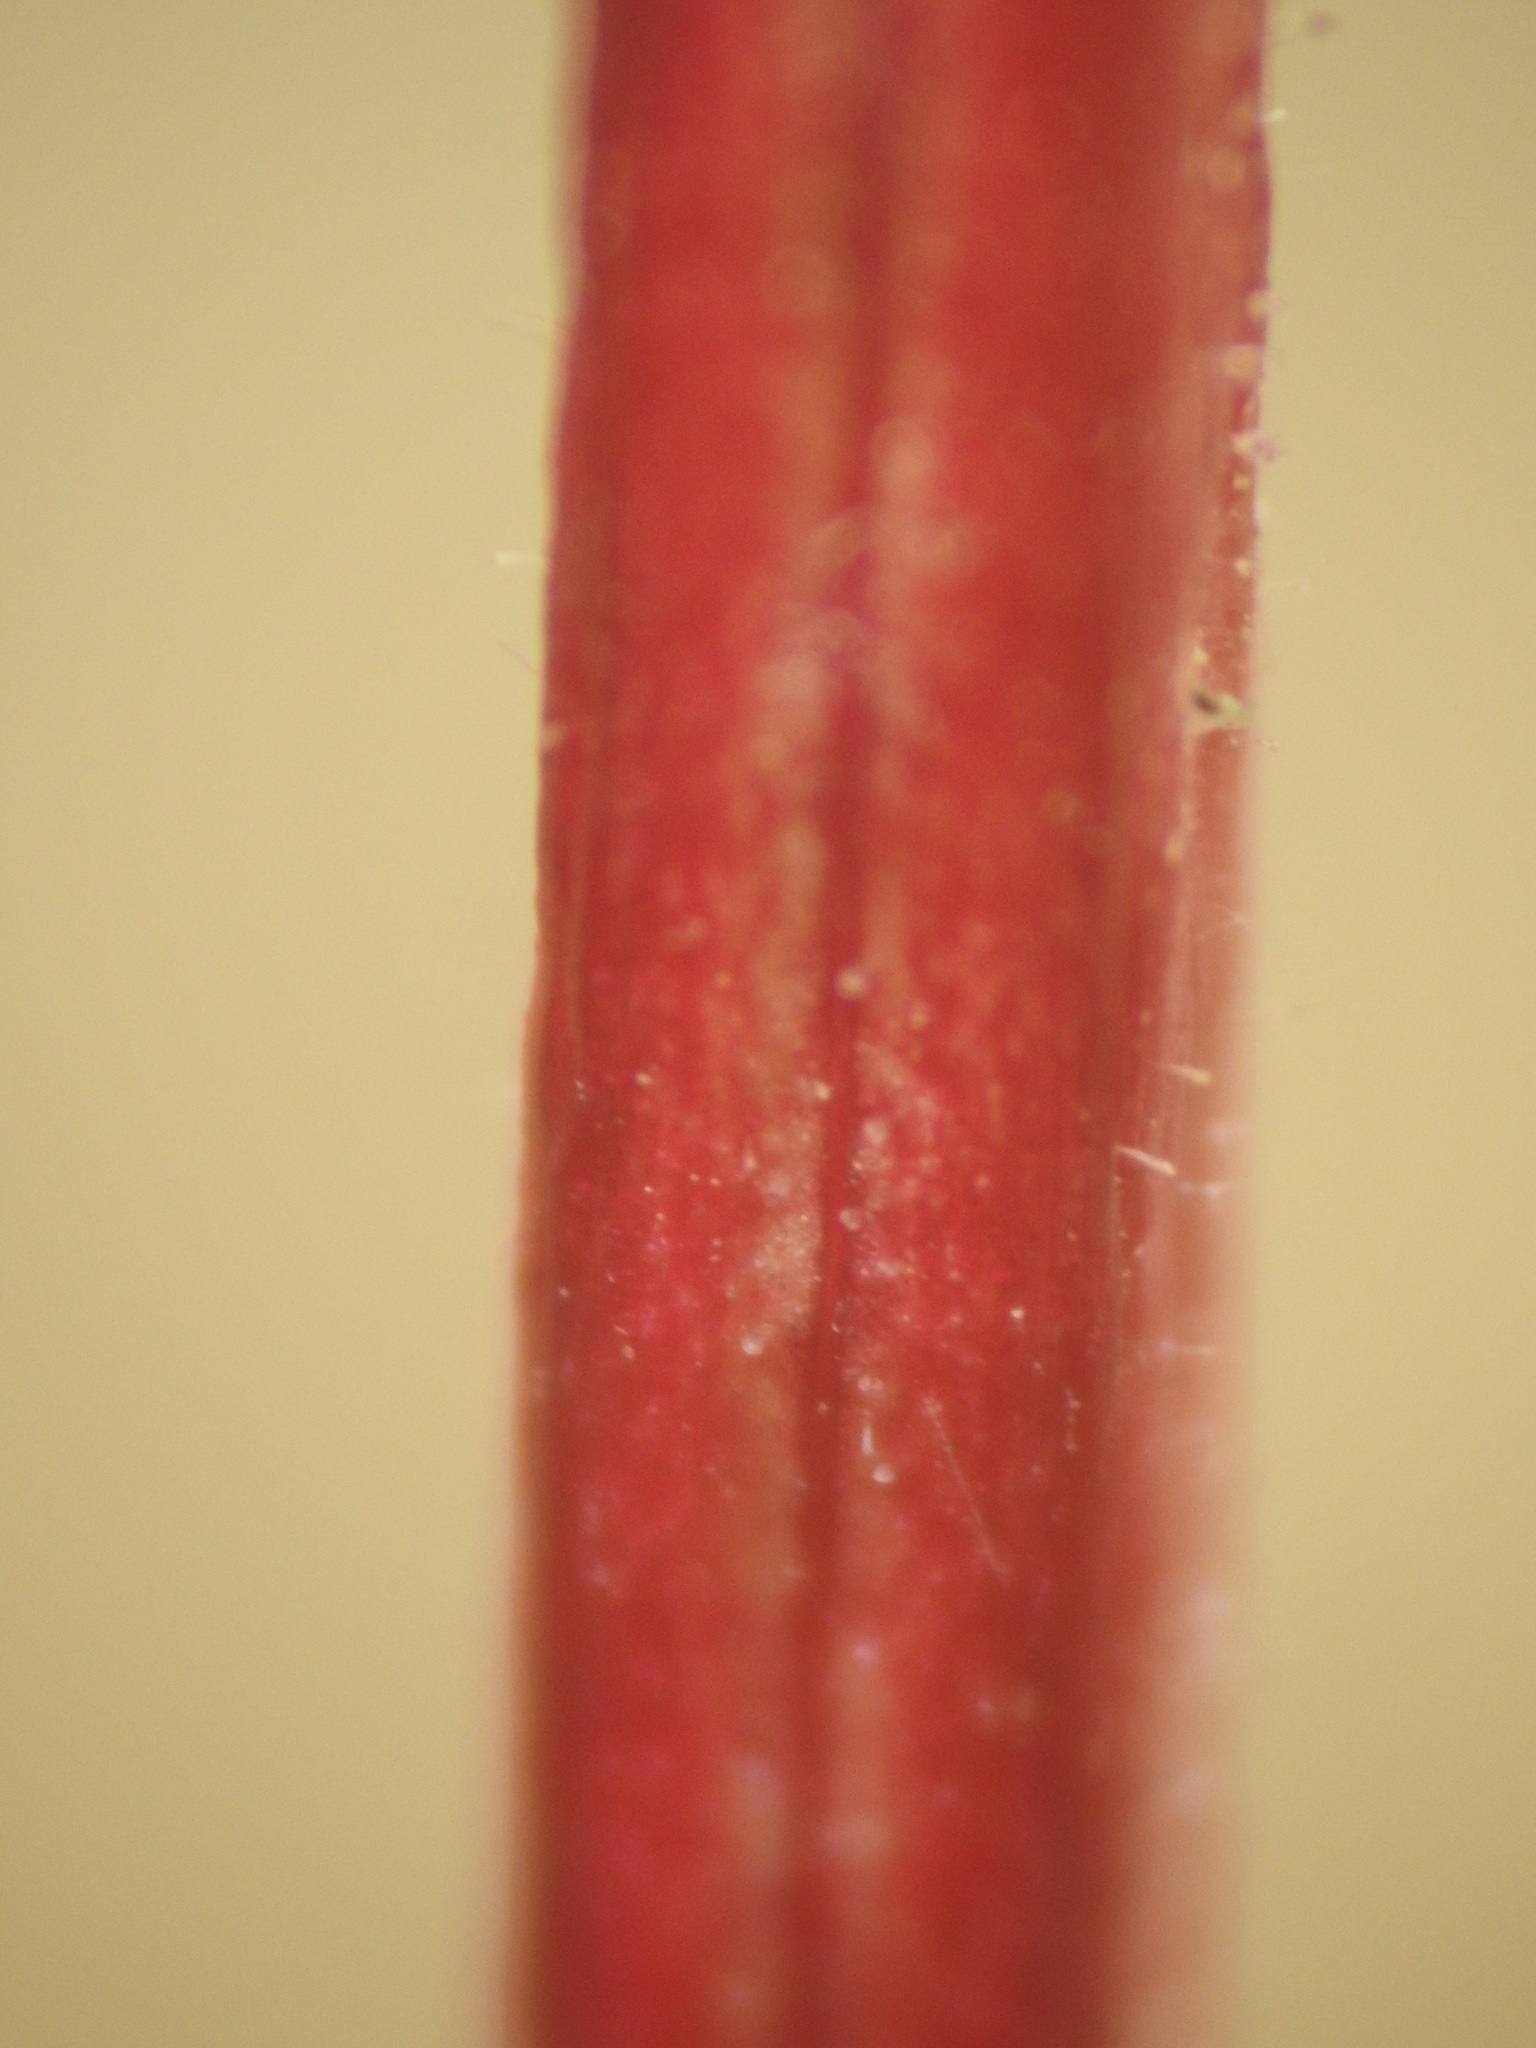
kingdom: Plantae
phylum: Tracheophyta
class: Magnoliopsida
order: Myrtales
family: Onagraceae
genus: Epilobium
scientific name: Epilobium anagallidifolium
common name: Alpine willowherb
